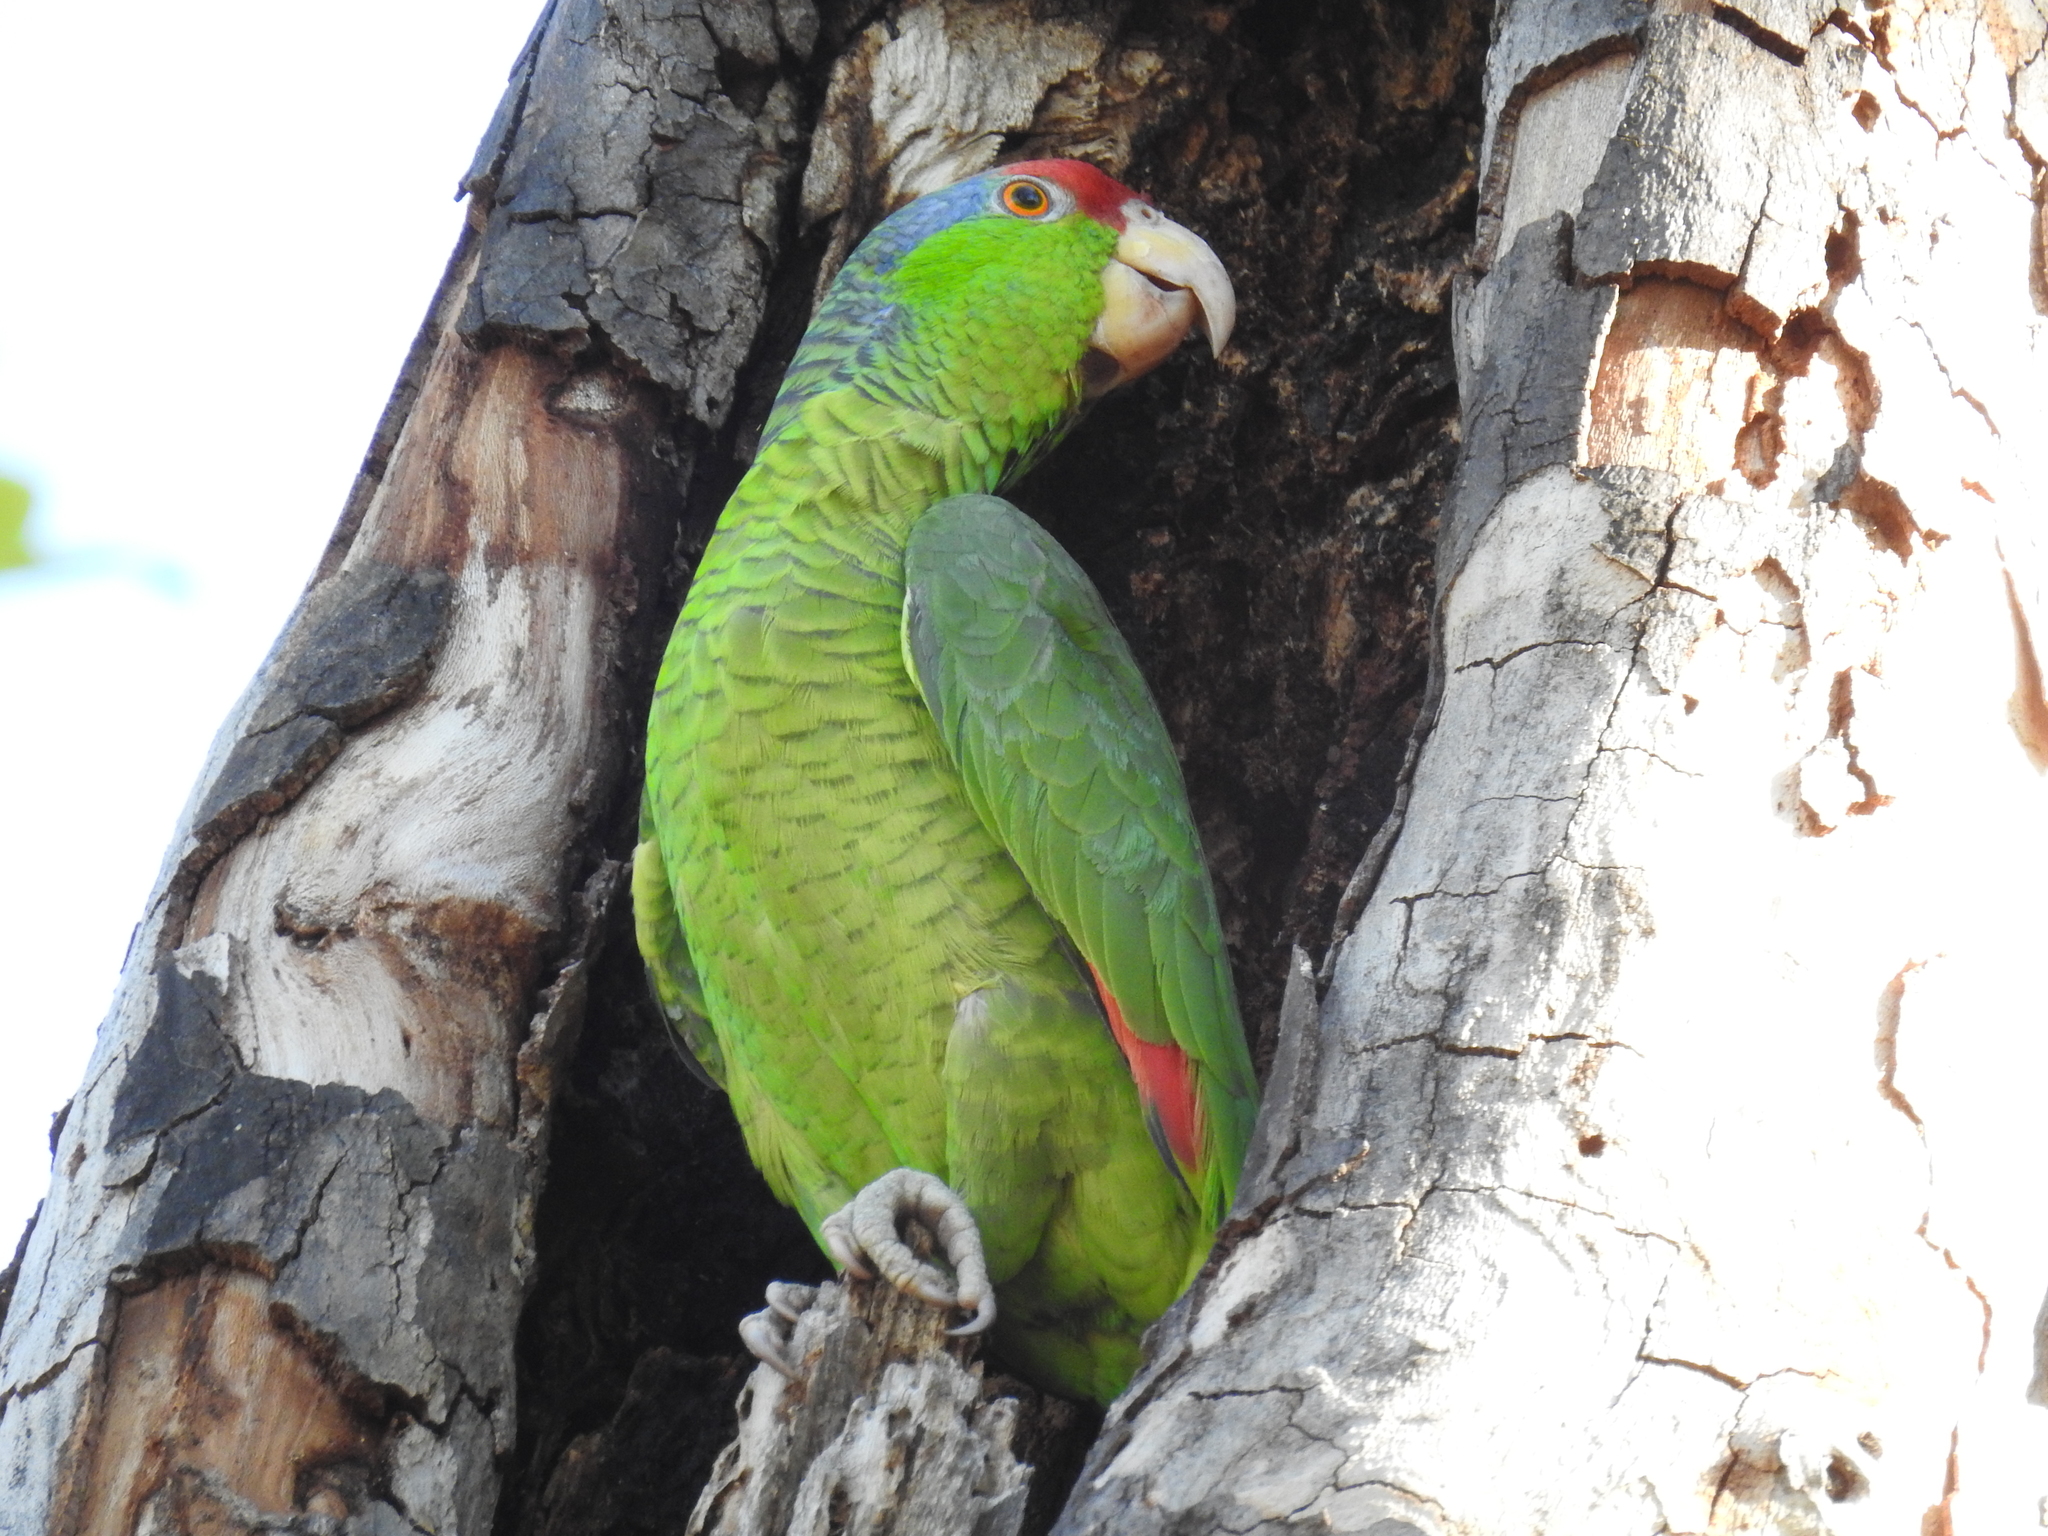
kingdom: Animalia
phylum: Chordata
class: Aves
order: Psittaciformes
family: Psittacidae
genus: Amazona
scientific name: Amazona viridigenalis
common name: Red-crowned amazon
